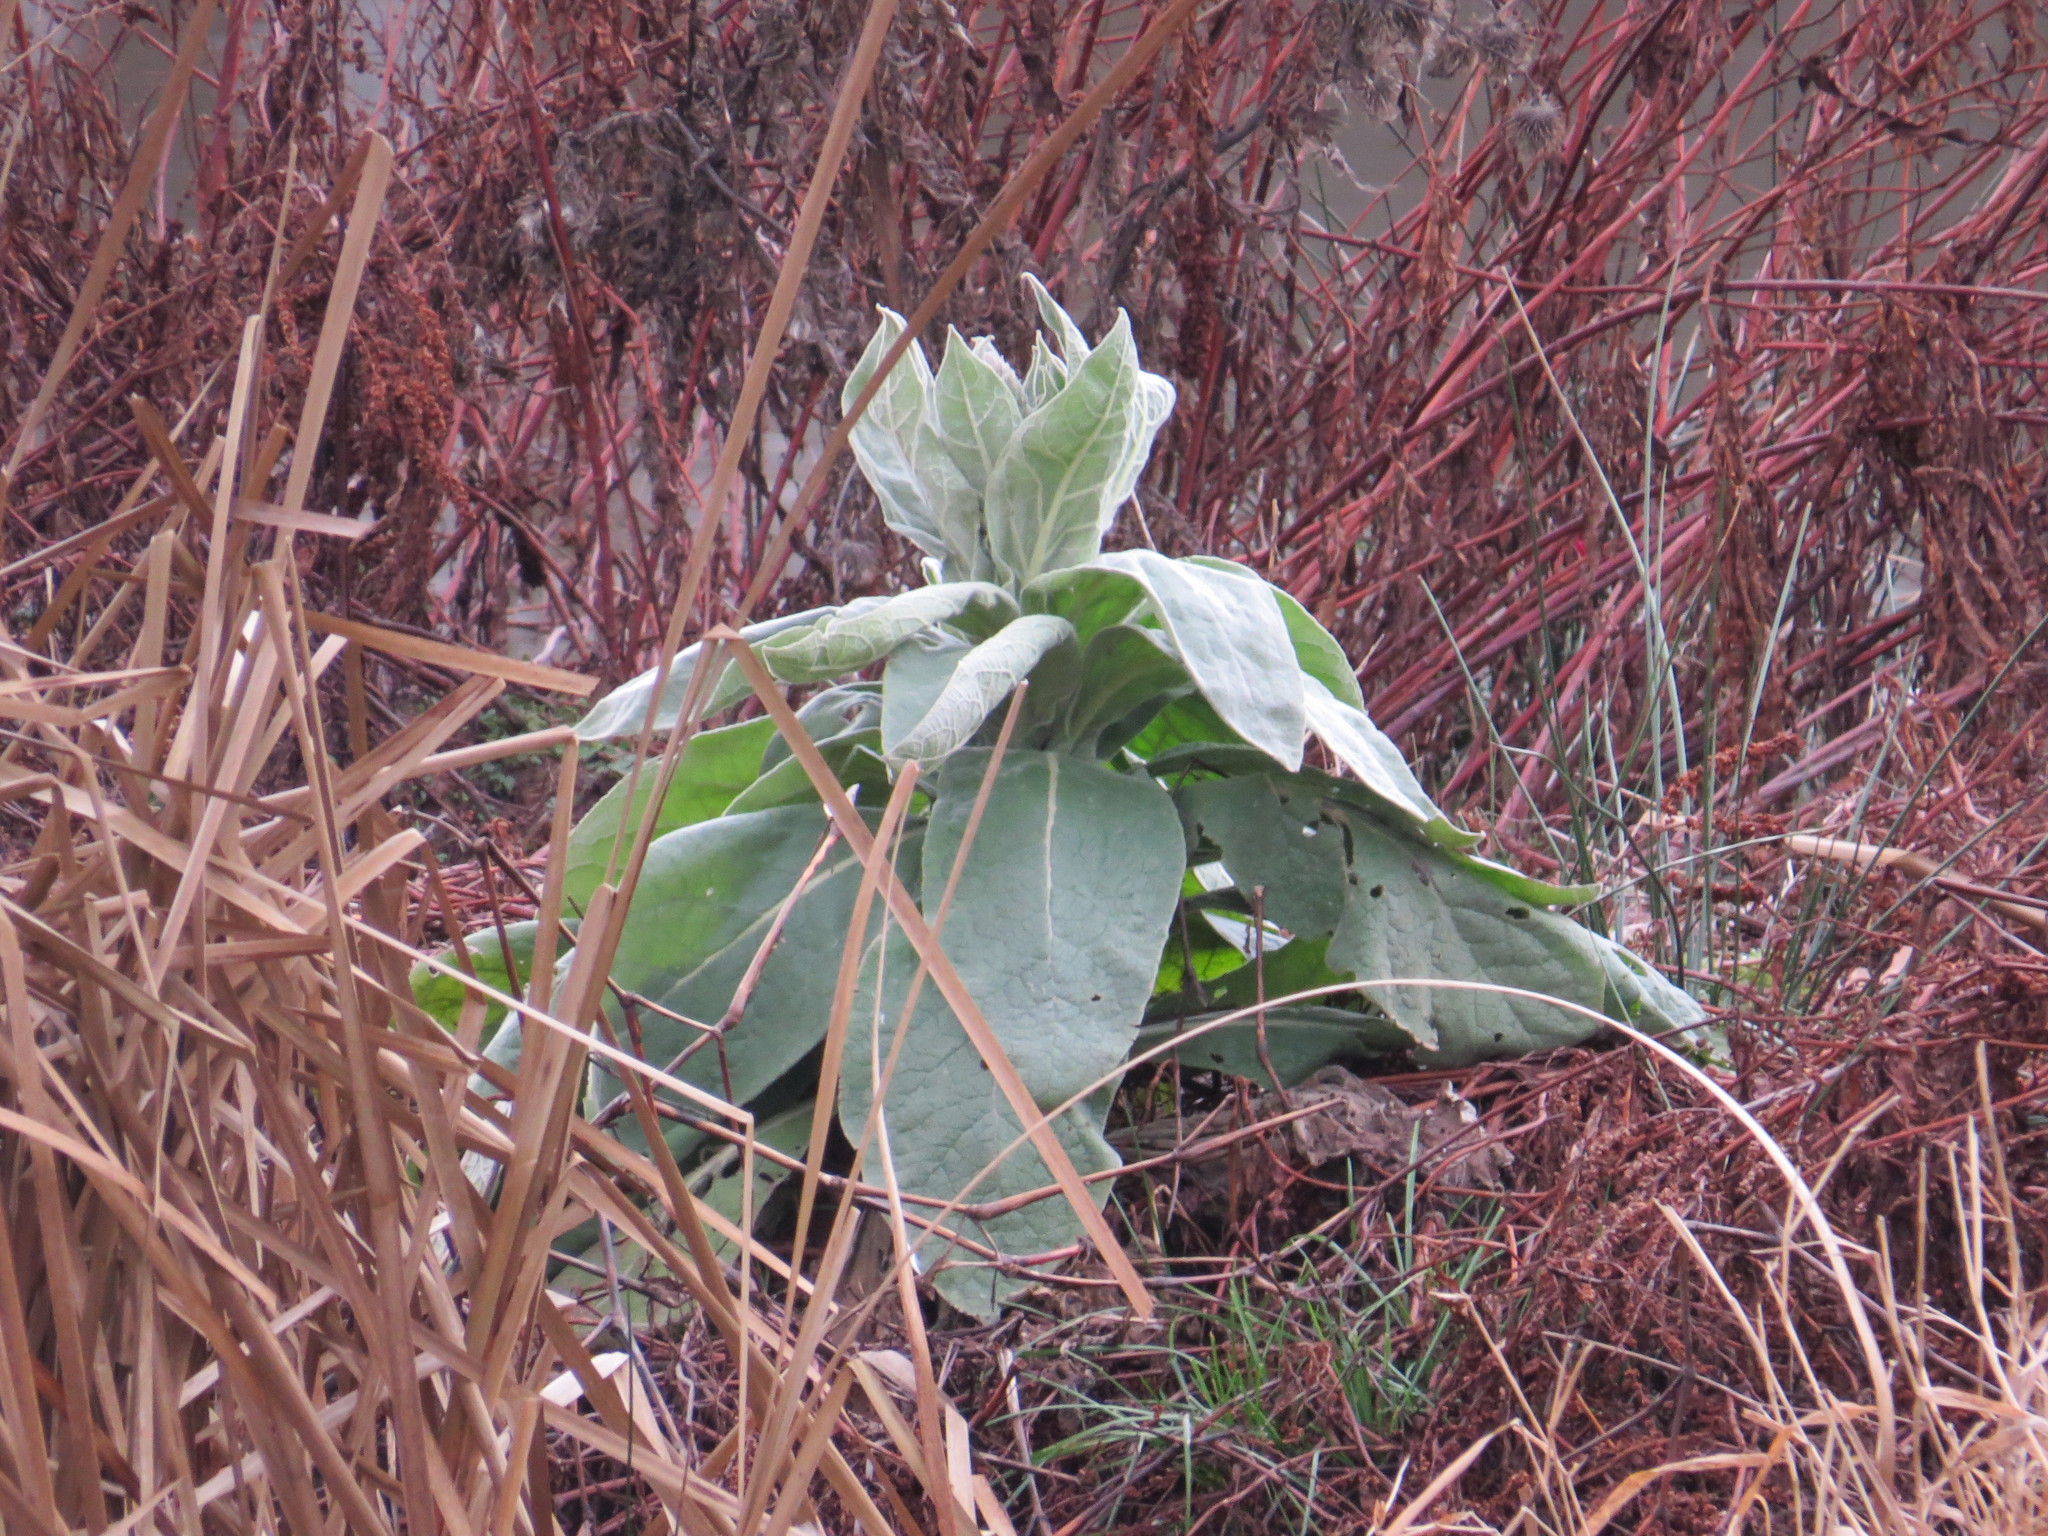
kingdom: Plantae
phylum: Tracheophyta
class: Magnoliopsida
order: Lamiales
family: Scrophulariaceae
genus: Verbascum
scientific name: Verbascum thapsus
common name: Common mullein
